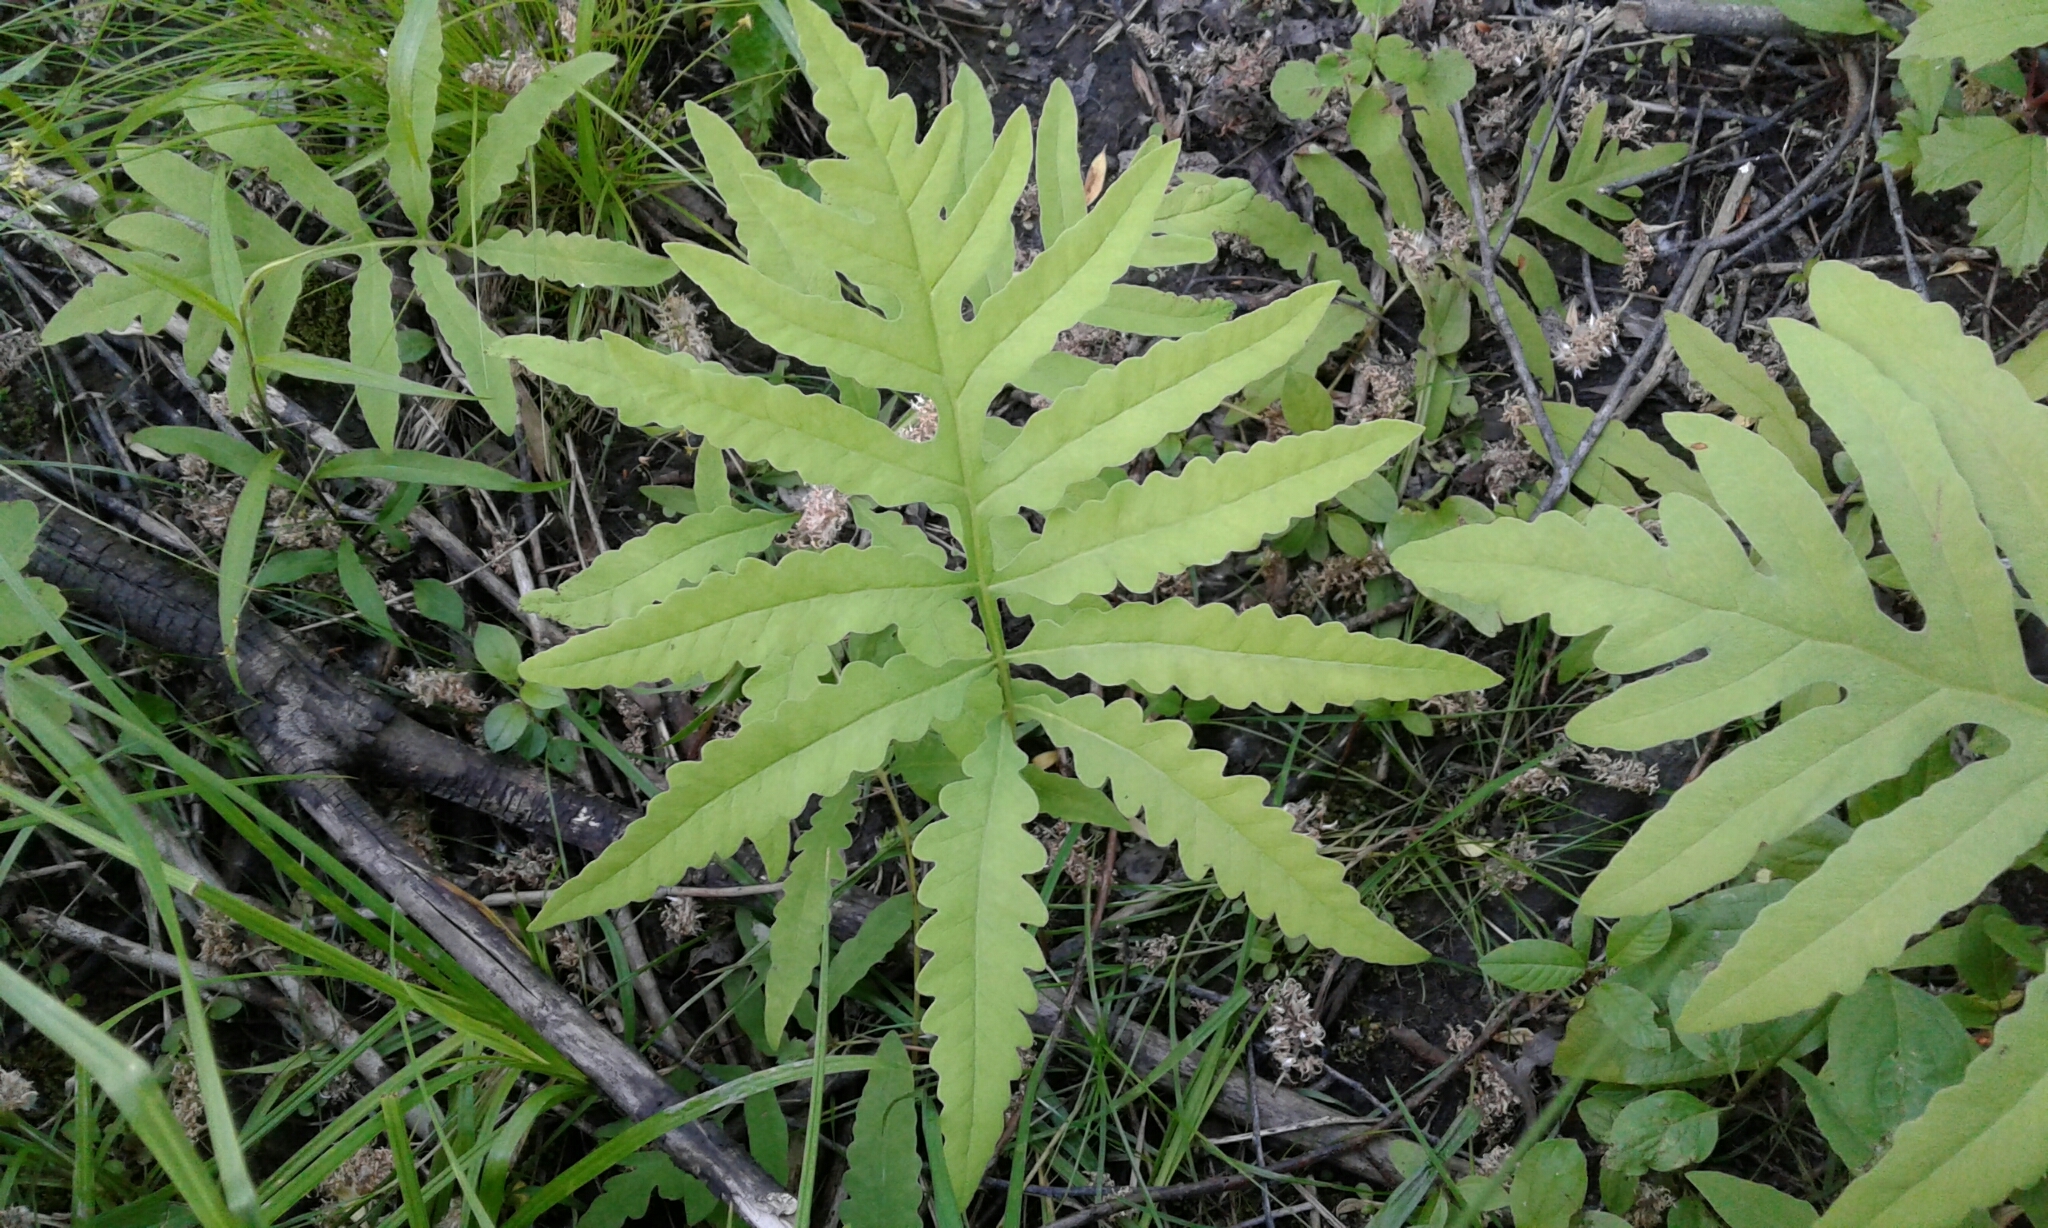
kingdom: Plantae
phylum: Tracheophyta
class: Polypodiopsida
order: Polypodiales
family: Onocleaceae
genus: Onoclea
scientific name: Onoclea sensibilis
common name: Sensitive fern
